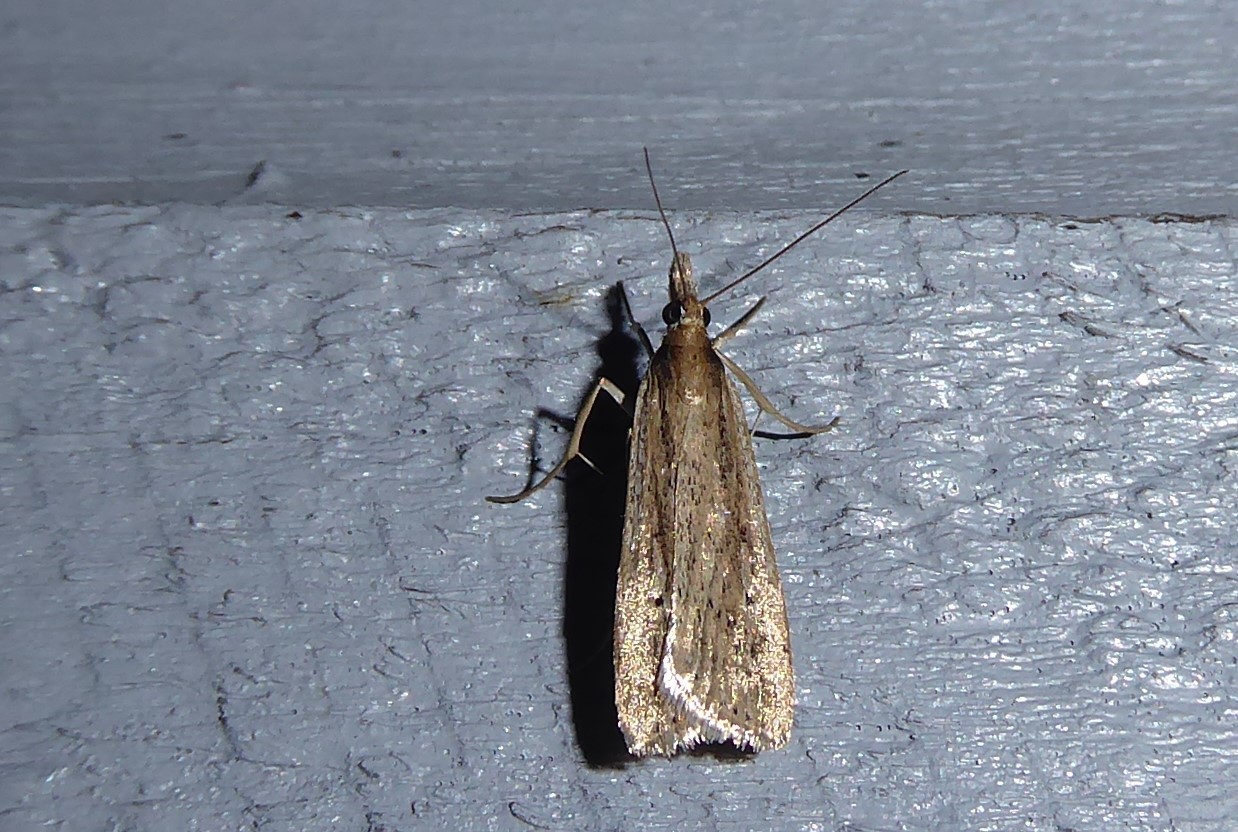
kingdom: Animalia
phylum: Arthropoda
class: Insecta
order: Lepidoptera
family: Crambidae
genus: Eudonia
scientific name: Eudonia sabulosella
